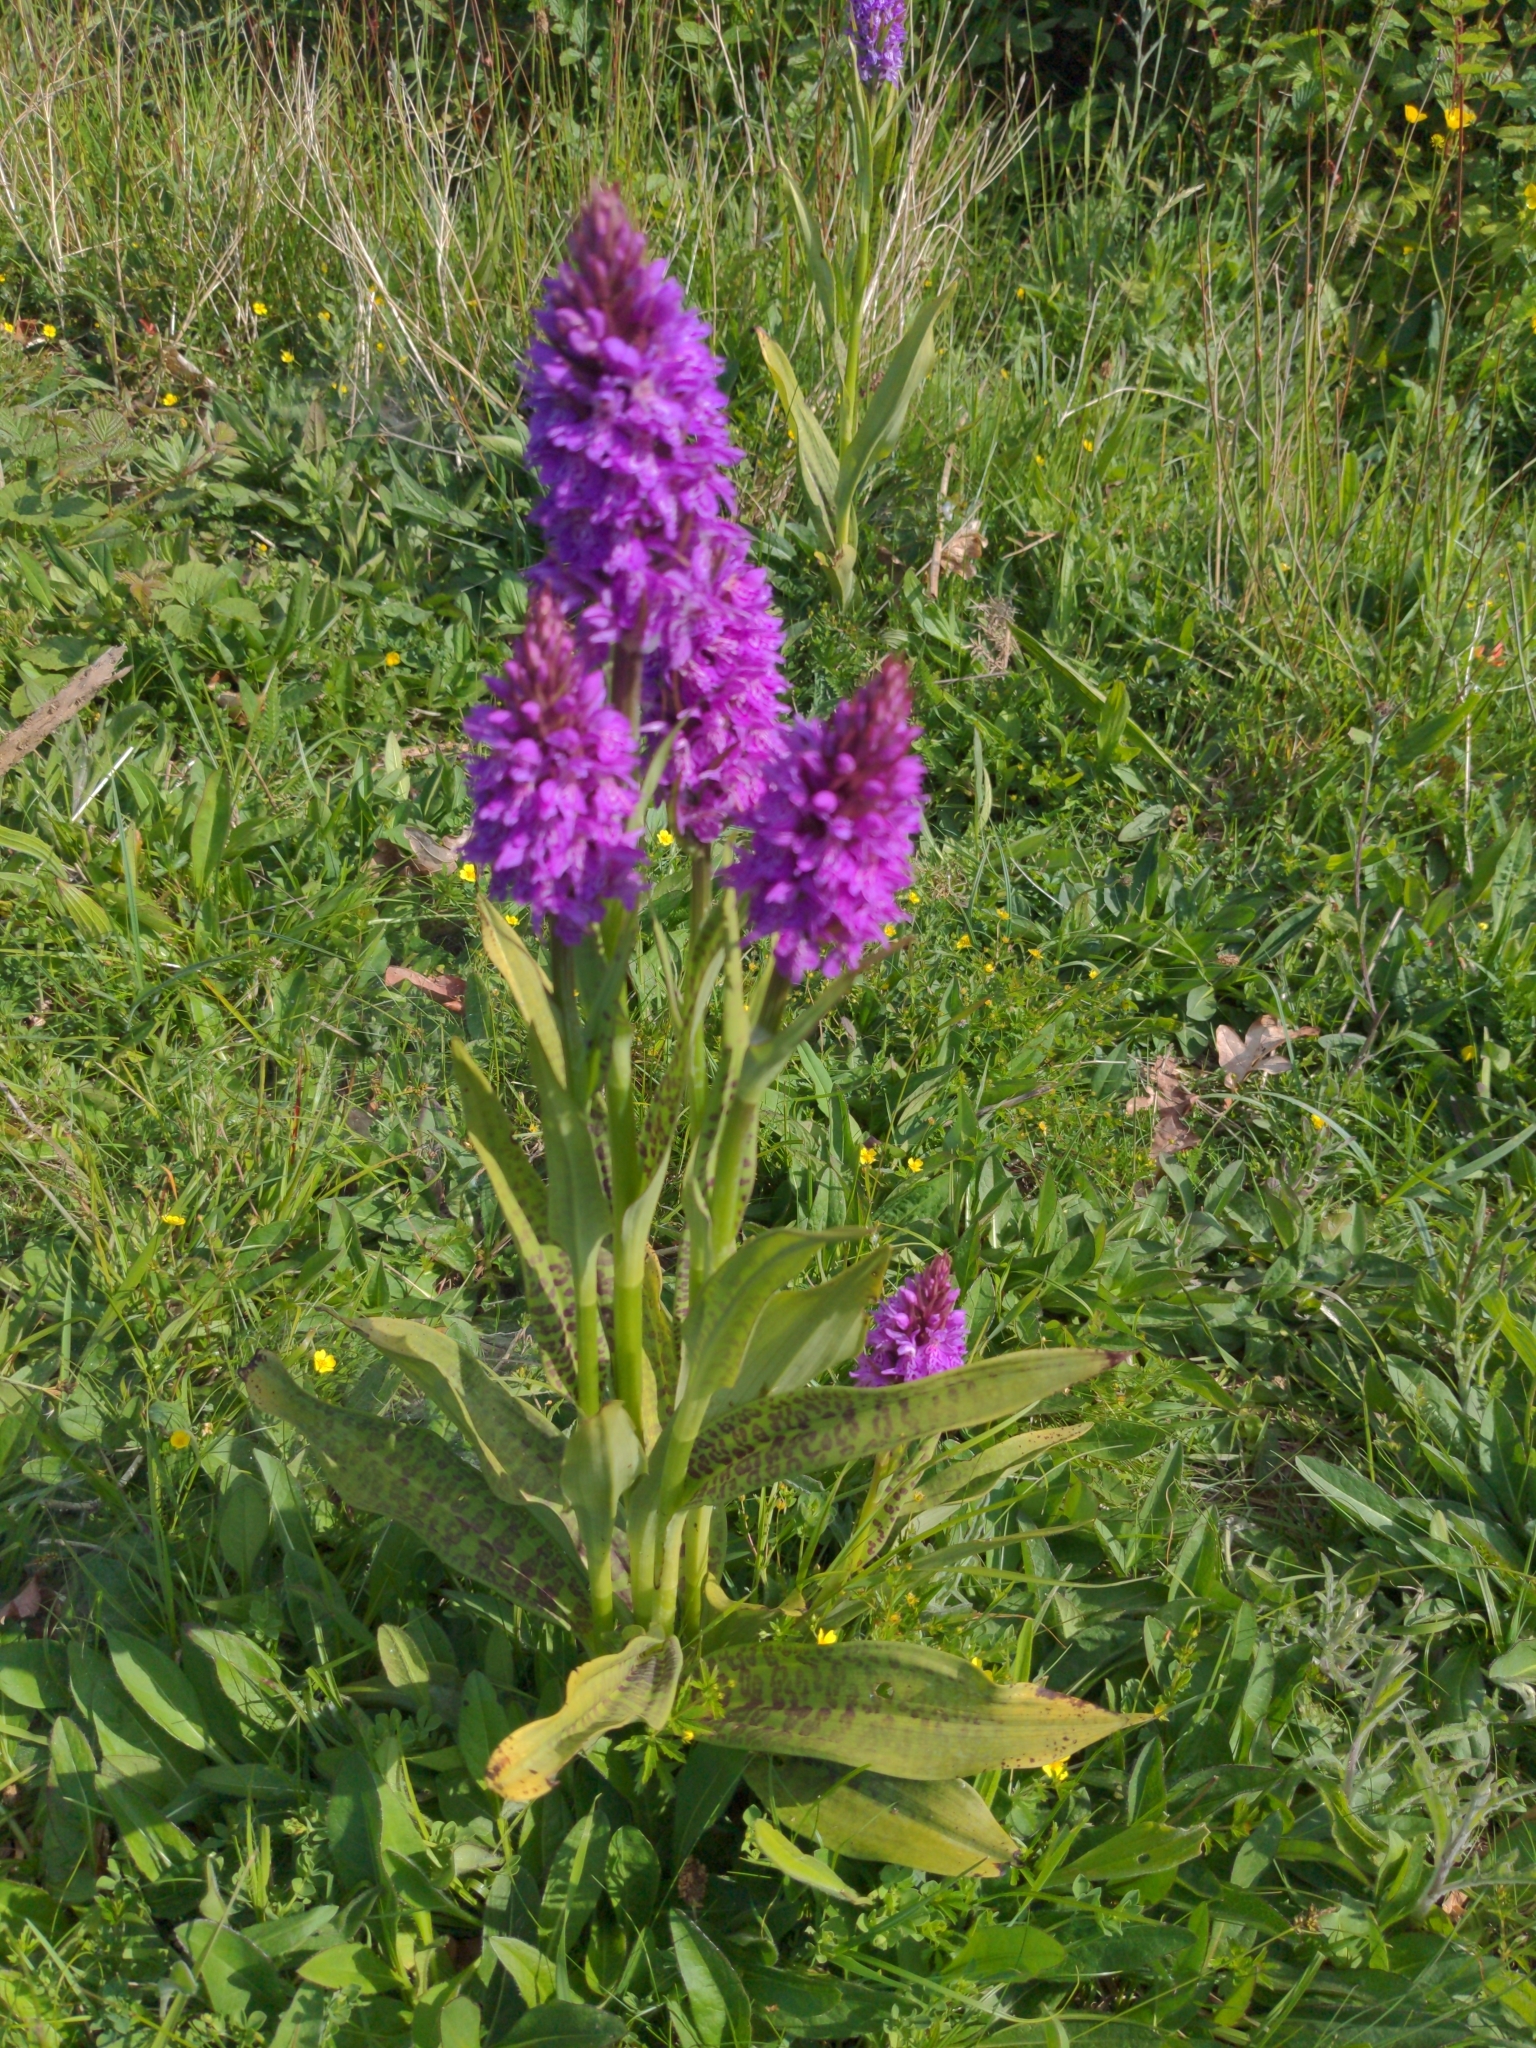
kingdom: Plantae
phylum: Tracheophyta
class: Liliopsida
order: Asparagales
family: Orchidaceae
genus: Dactylorhiza
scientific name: Dactylorhiza maculata
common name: Heath spotted-orchid
